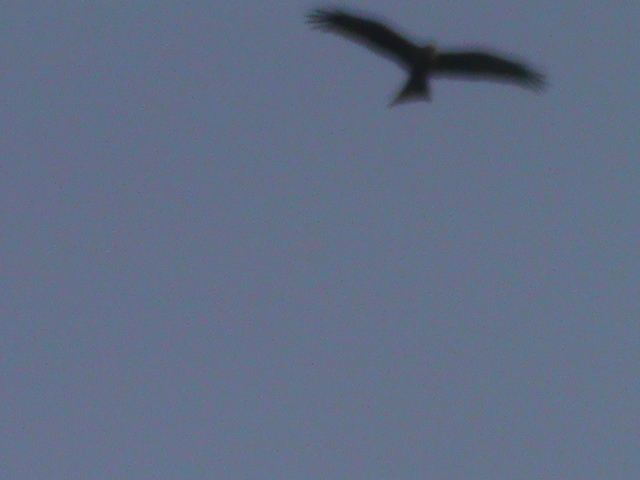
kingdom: Animalia
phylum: Chordata
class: Aves
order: Accipitriformes
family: Accipitridae
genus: Milvus
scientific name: Milvus migrans
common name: Black kite
